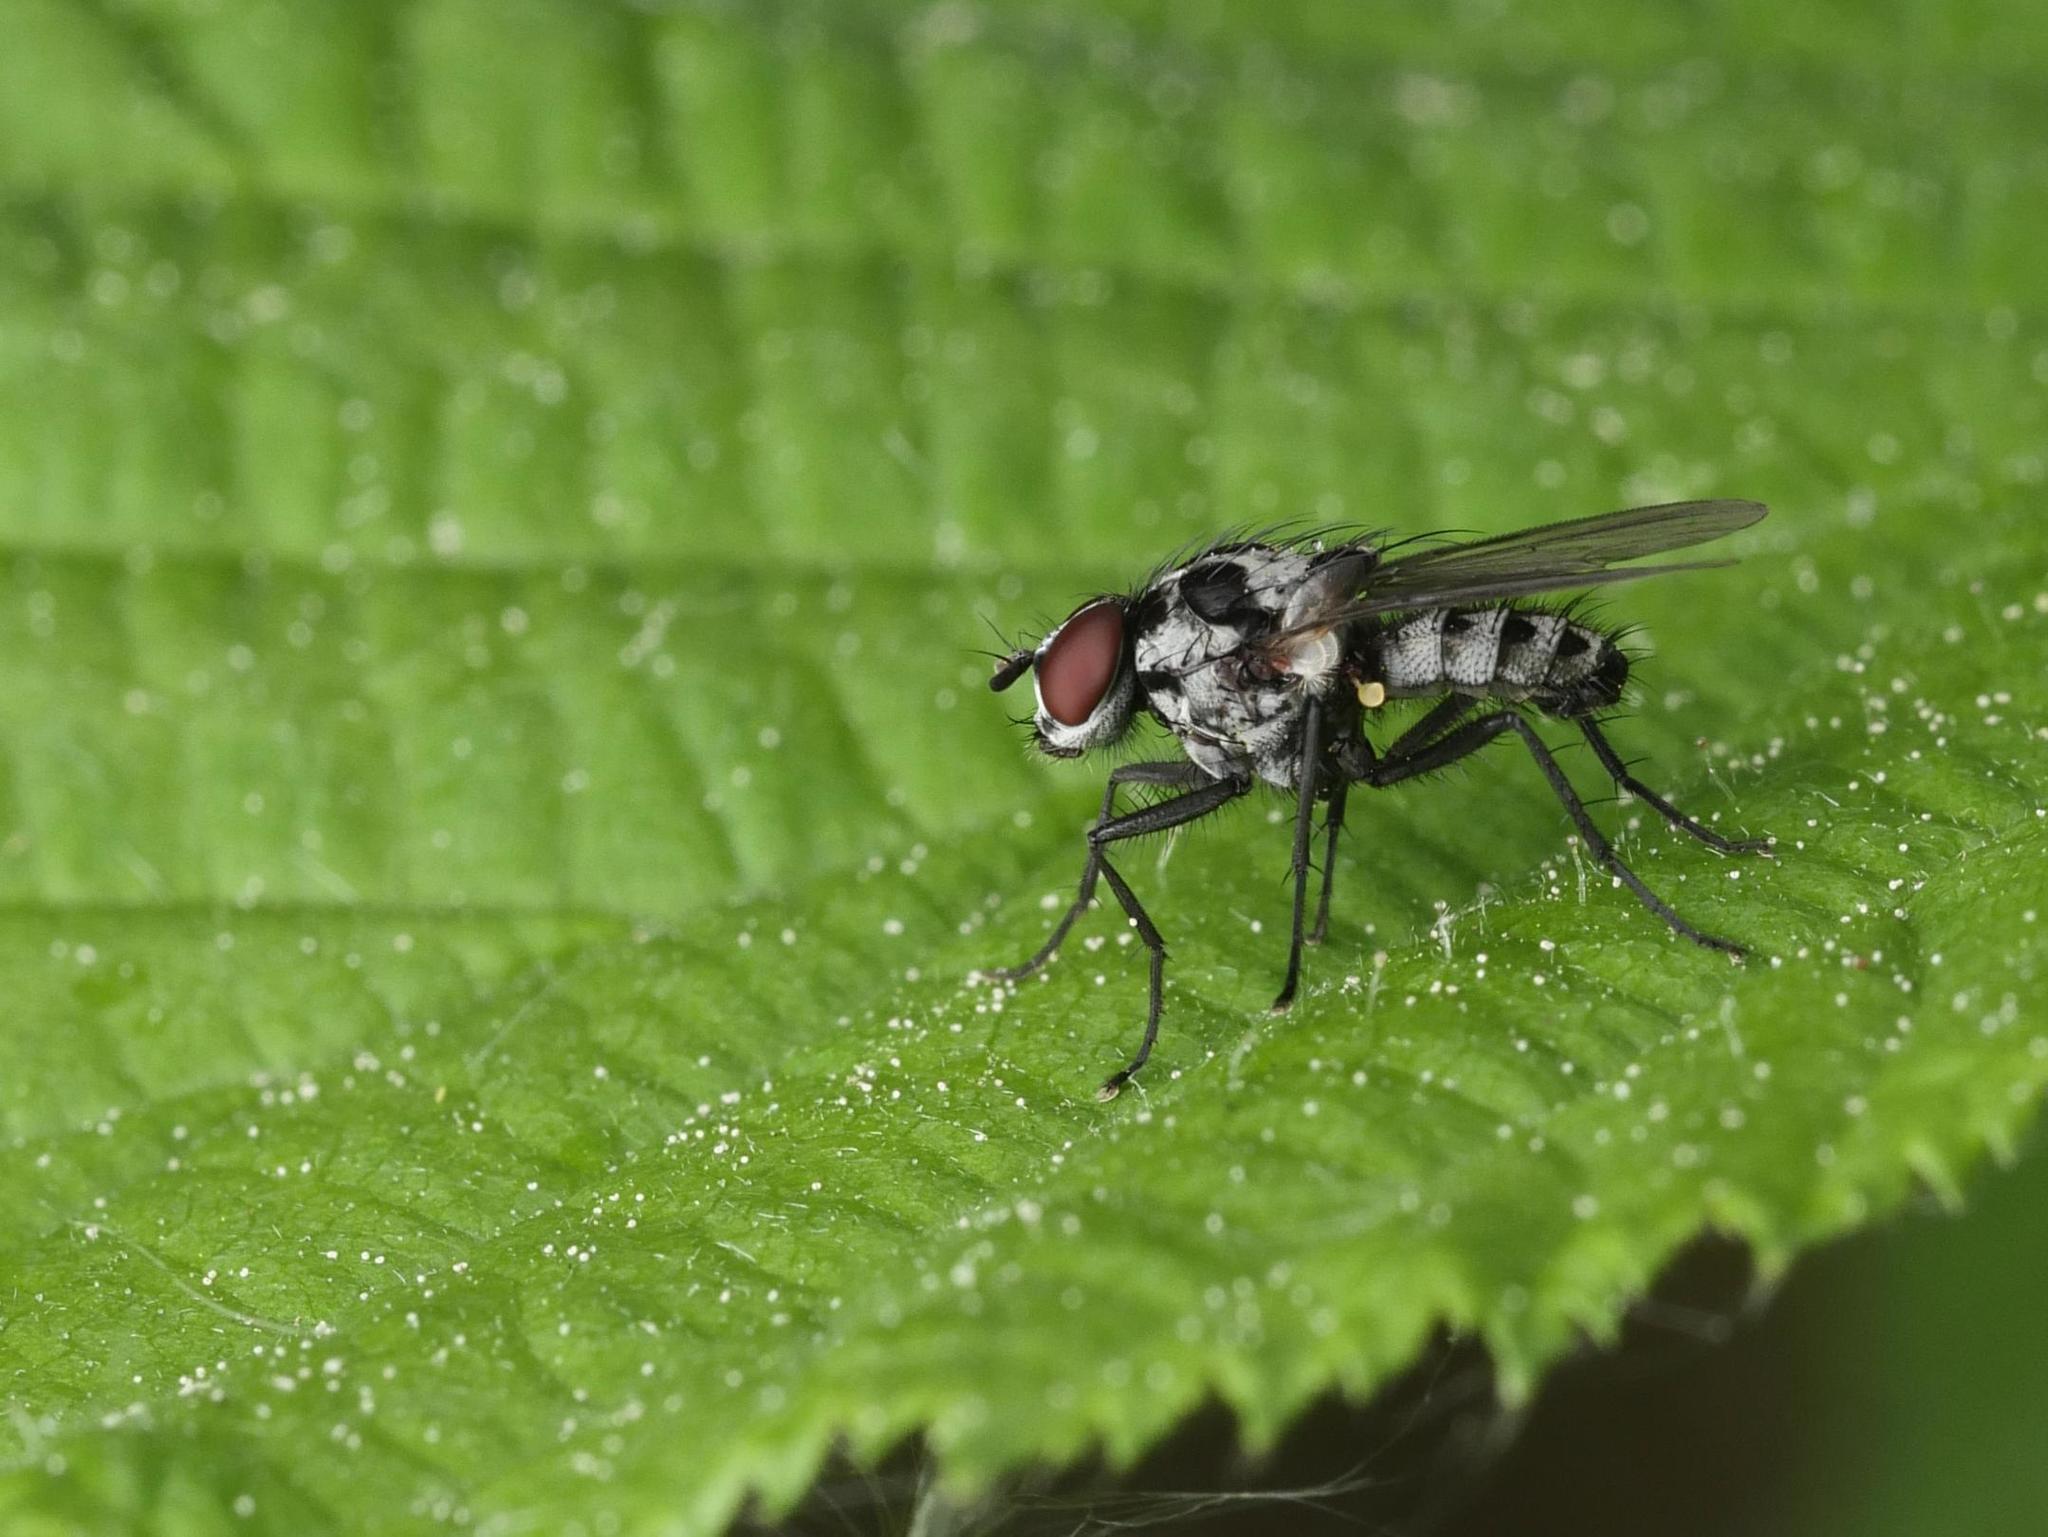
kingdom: Animalia
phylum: Arthropoda
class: Insecta
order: Diptera
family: Anthomyiidae
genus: Anthomyia
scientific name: Anthomyia procellaris
